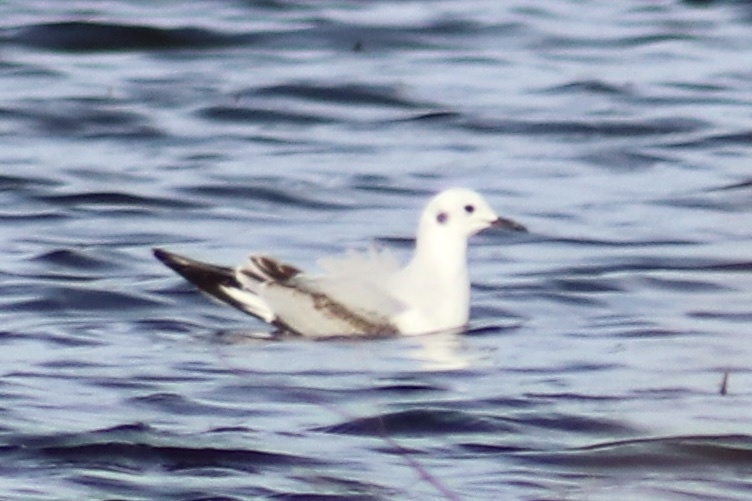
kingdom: Animalia
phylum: Chordata
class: Aves
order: Charadriiformes
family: Laridae
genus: Chroicocephalus
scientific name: Chroicocephalus philadelphia
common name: Bonaparte's gull
